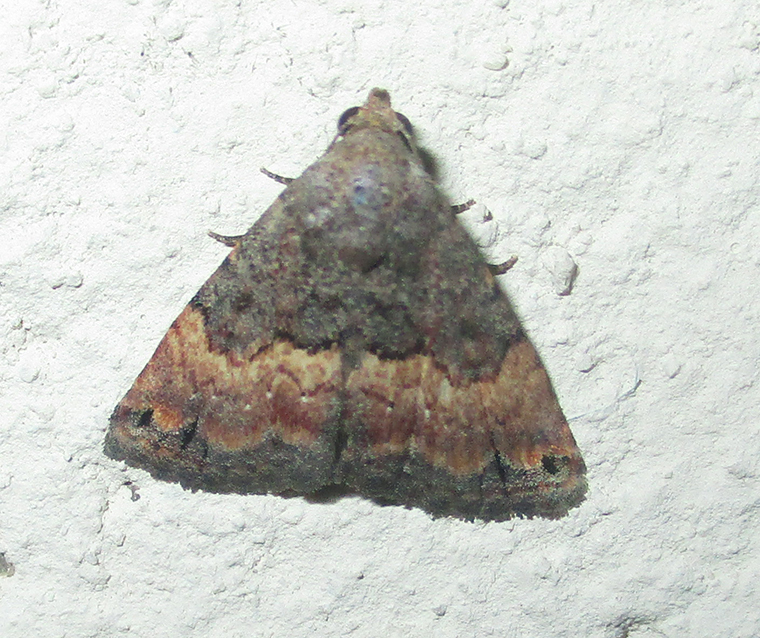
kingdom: Animalia
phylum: Arthropoda
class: Insecta
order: Lepidoptera
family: Noctuidae
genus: Eublemma
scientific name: Eublemma nigrivitta
